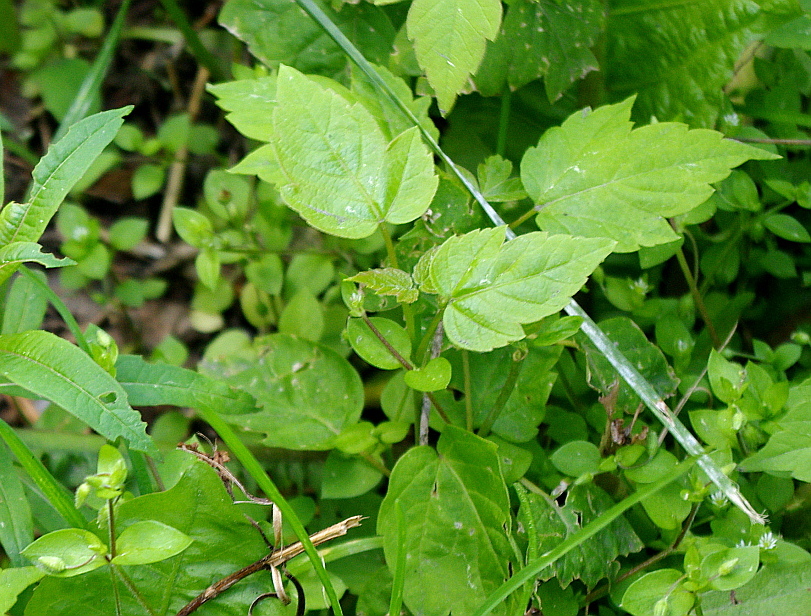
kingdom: Plantae
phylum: Tracheophyta
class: Magnoliopsida
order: Sapindales
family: Sapindaceae
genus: Acer
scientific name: Acer negundo
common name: Ashleaf maple
